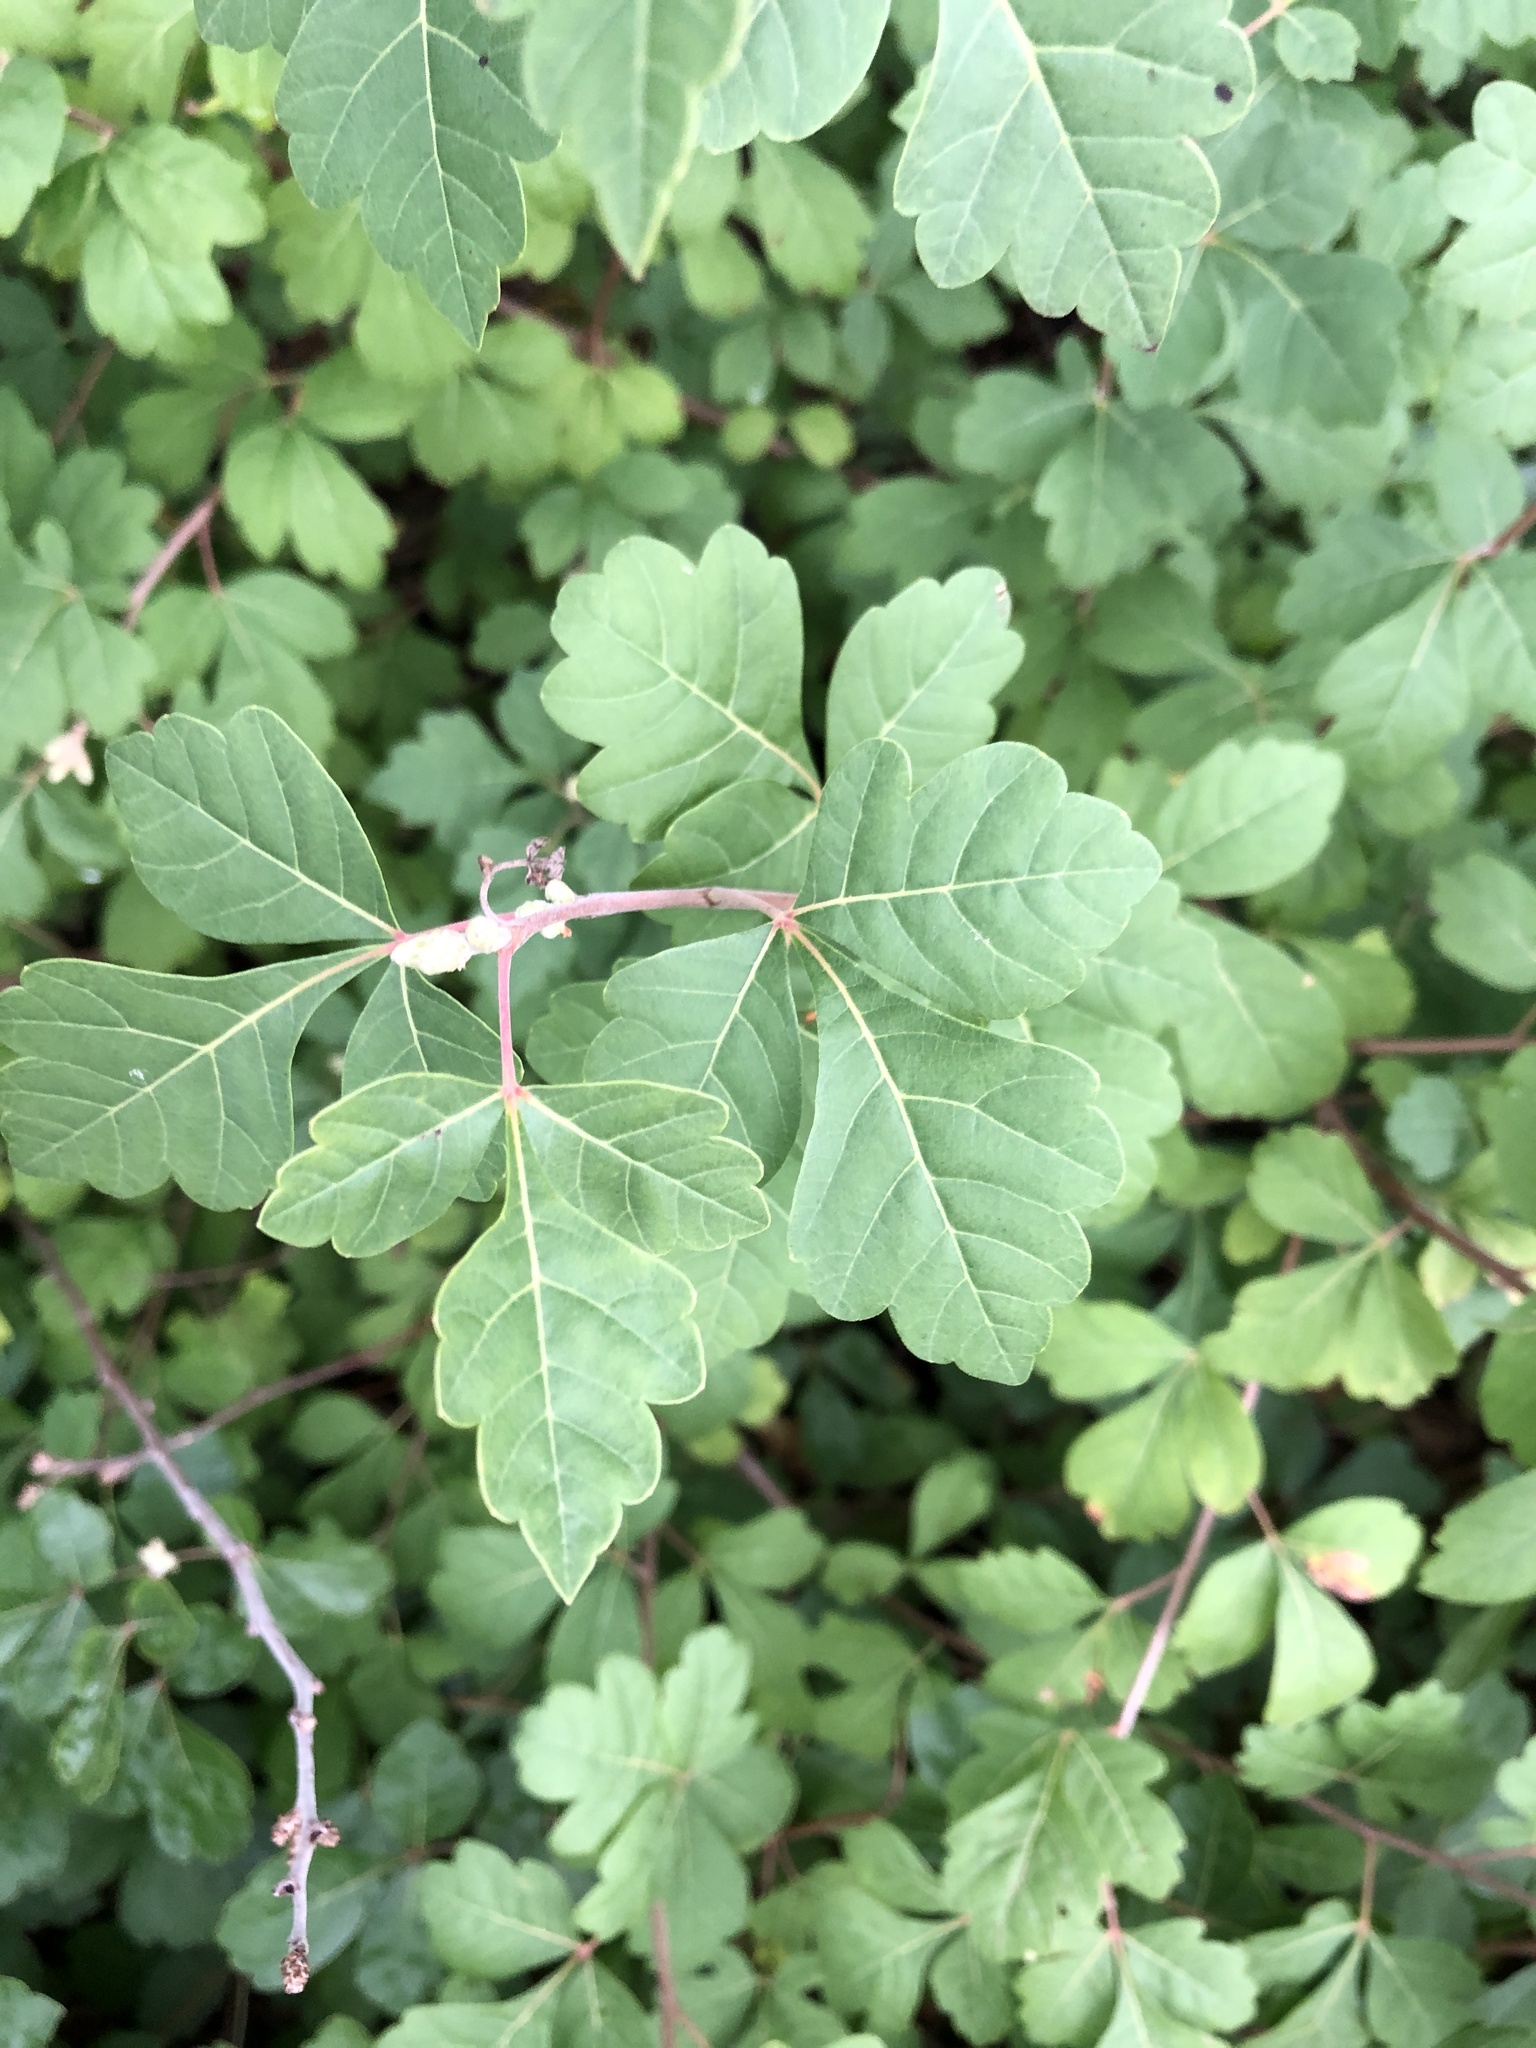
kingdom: Plantae
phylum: Tracheophyta
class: Magnoliopsida
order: Sapindales
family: Anacardiaceae
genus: Rhus
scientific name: Rhus aromatica
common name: Aromatic sumac
